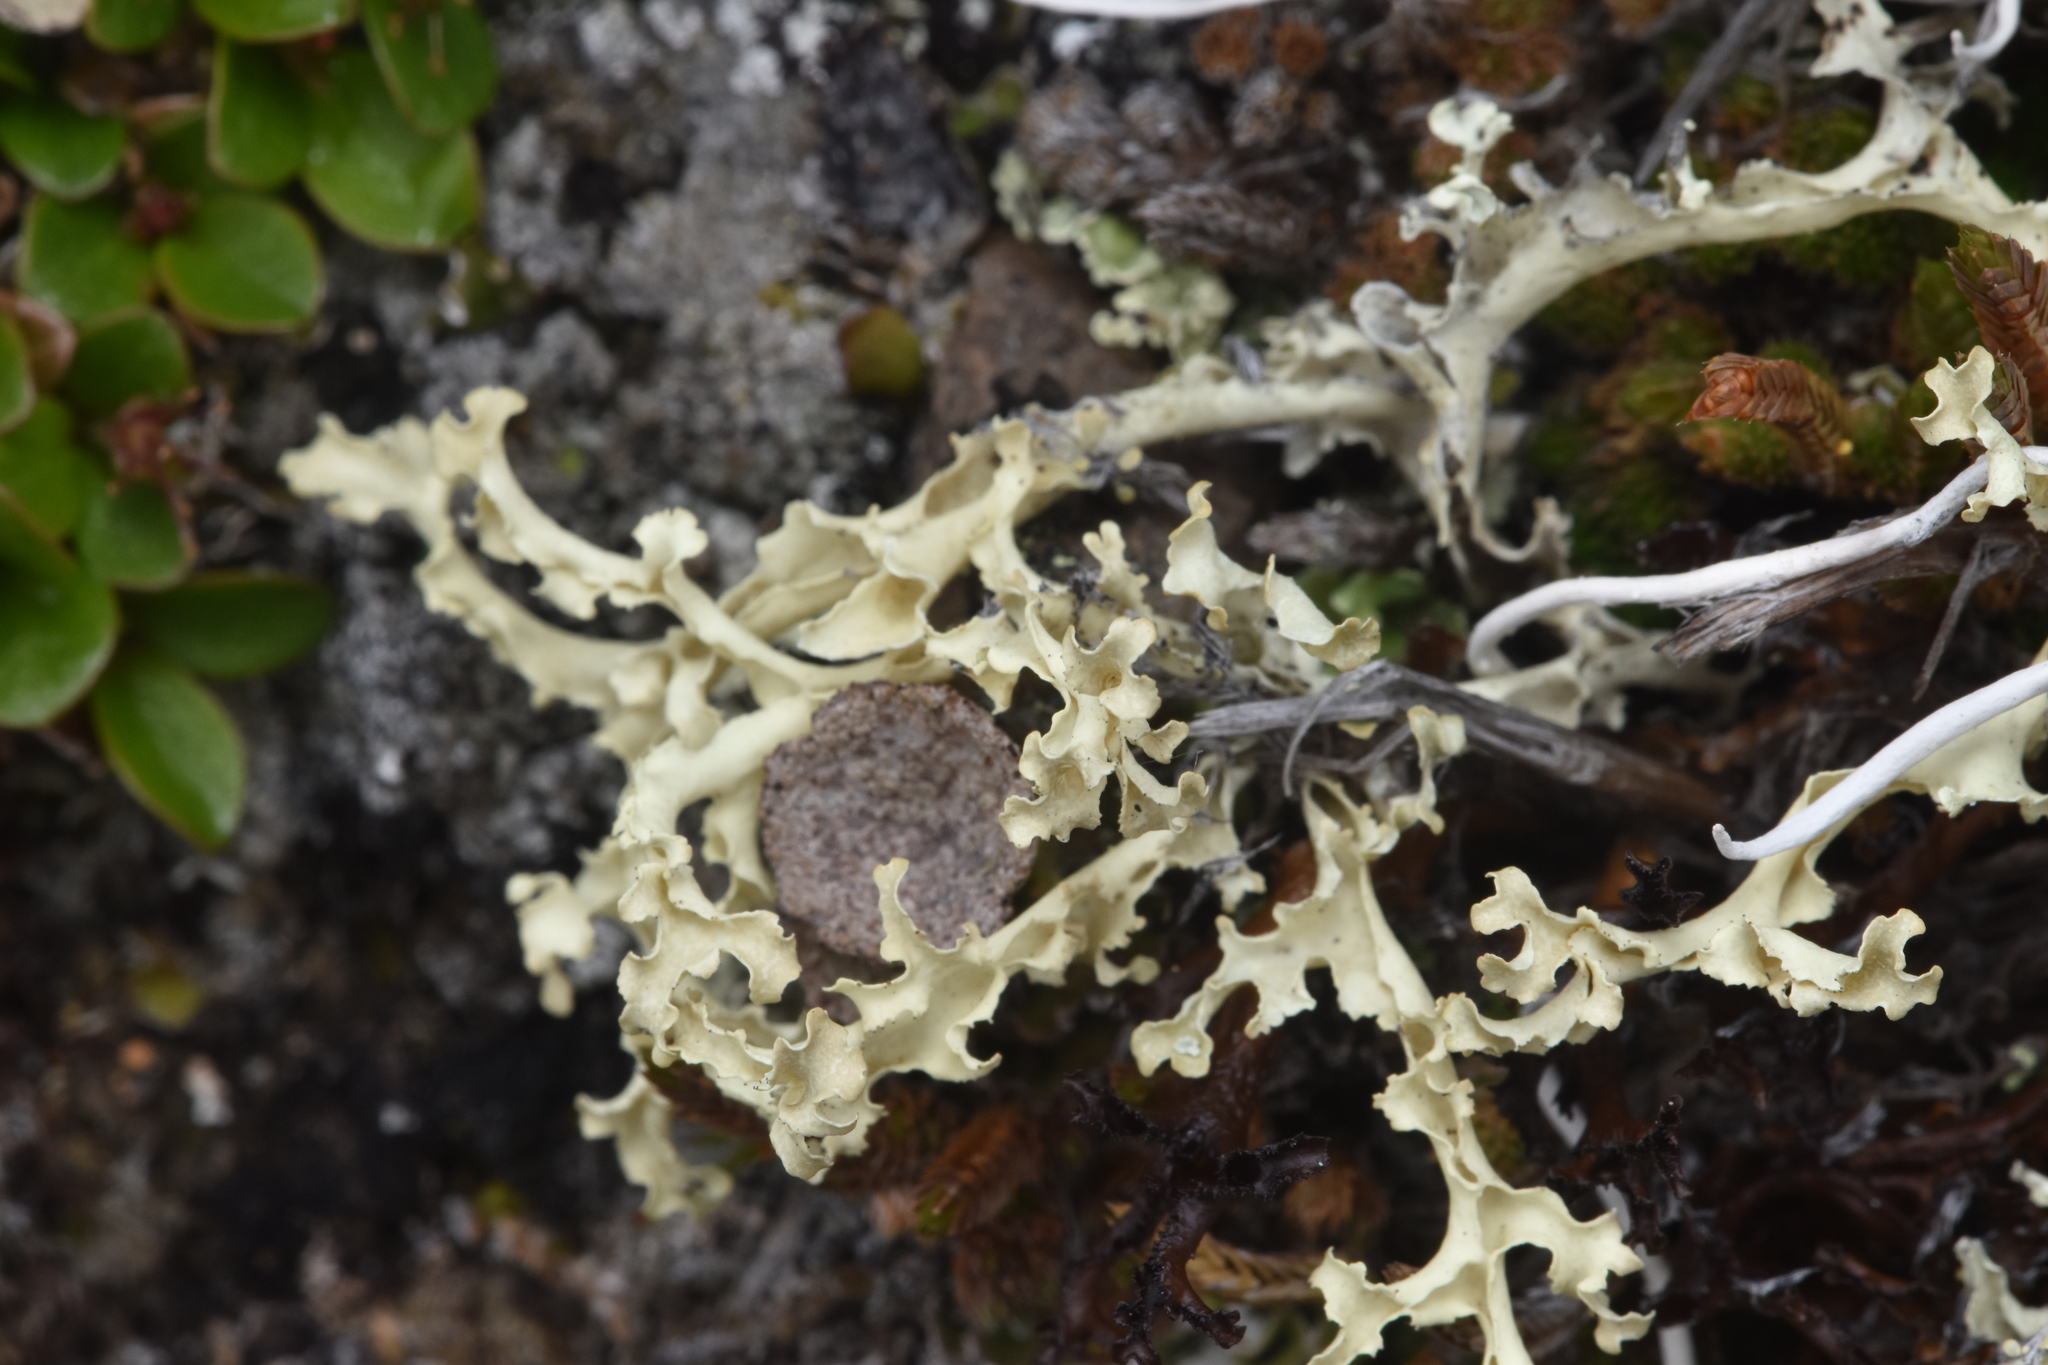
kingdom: Fungi
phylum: Ascomycota
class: Lecanoromycetes
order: Lecanorales
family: Parmeliaceae
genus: Nephromopsis
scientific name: Nephromopsis cucullata
